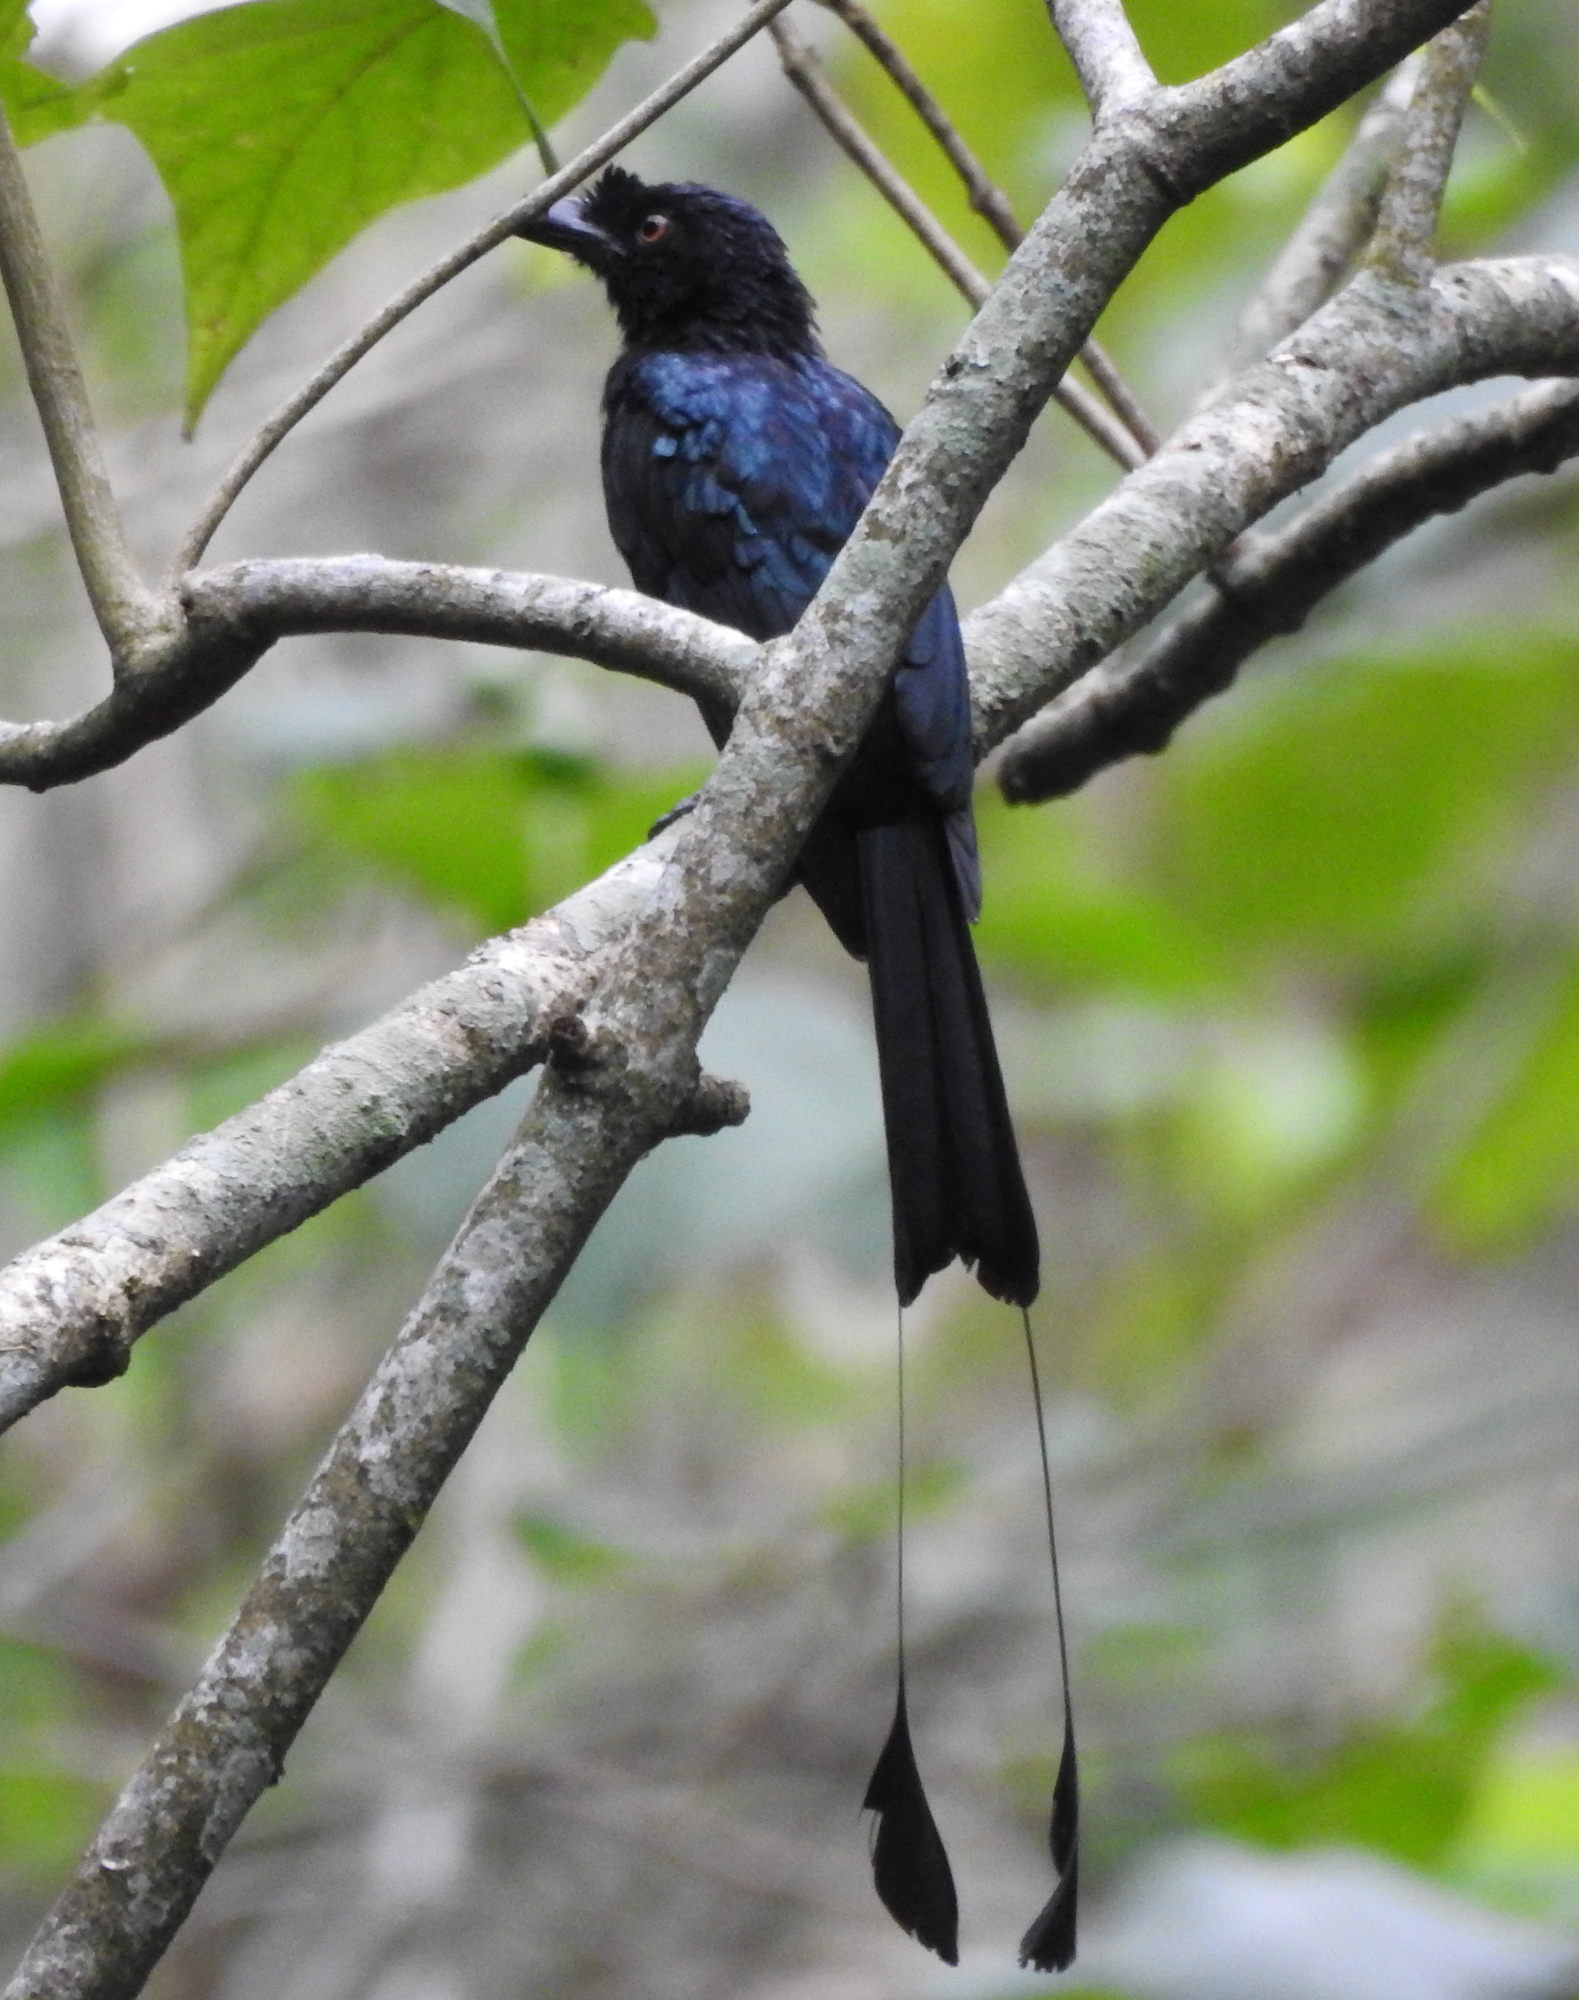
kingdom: Animalia
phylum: Chordata
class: Aves
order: Passeriformes
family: Dicruridae
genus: Dicrurus
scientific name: Dicrurus paradiseus
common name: Greater racket-tailed drongo
